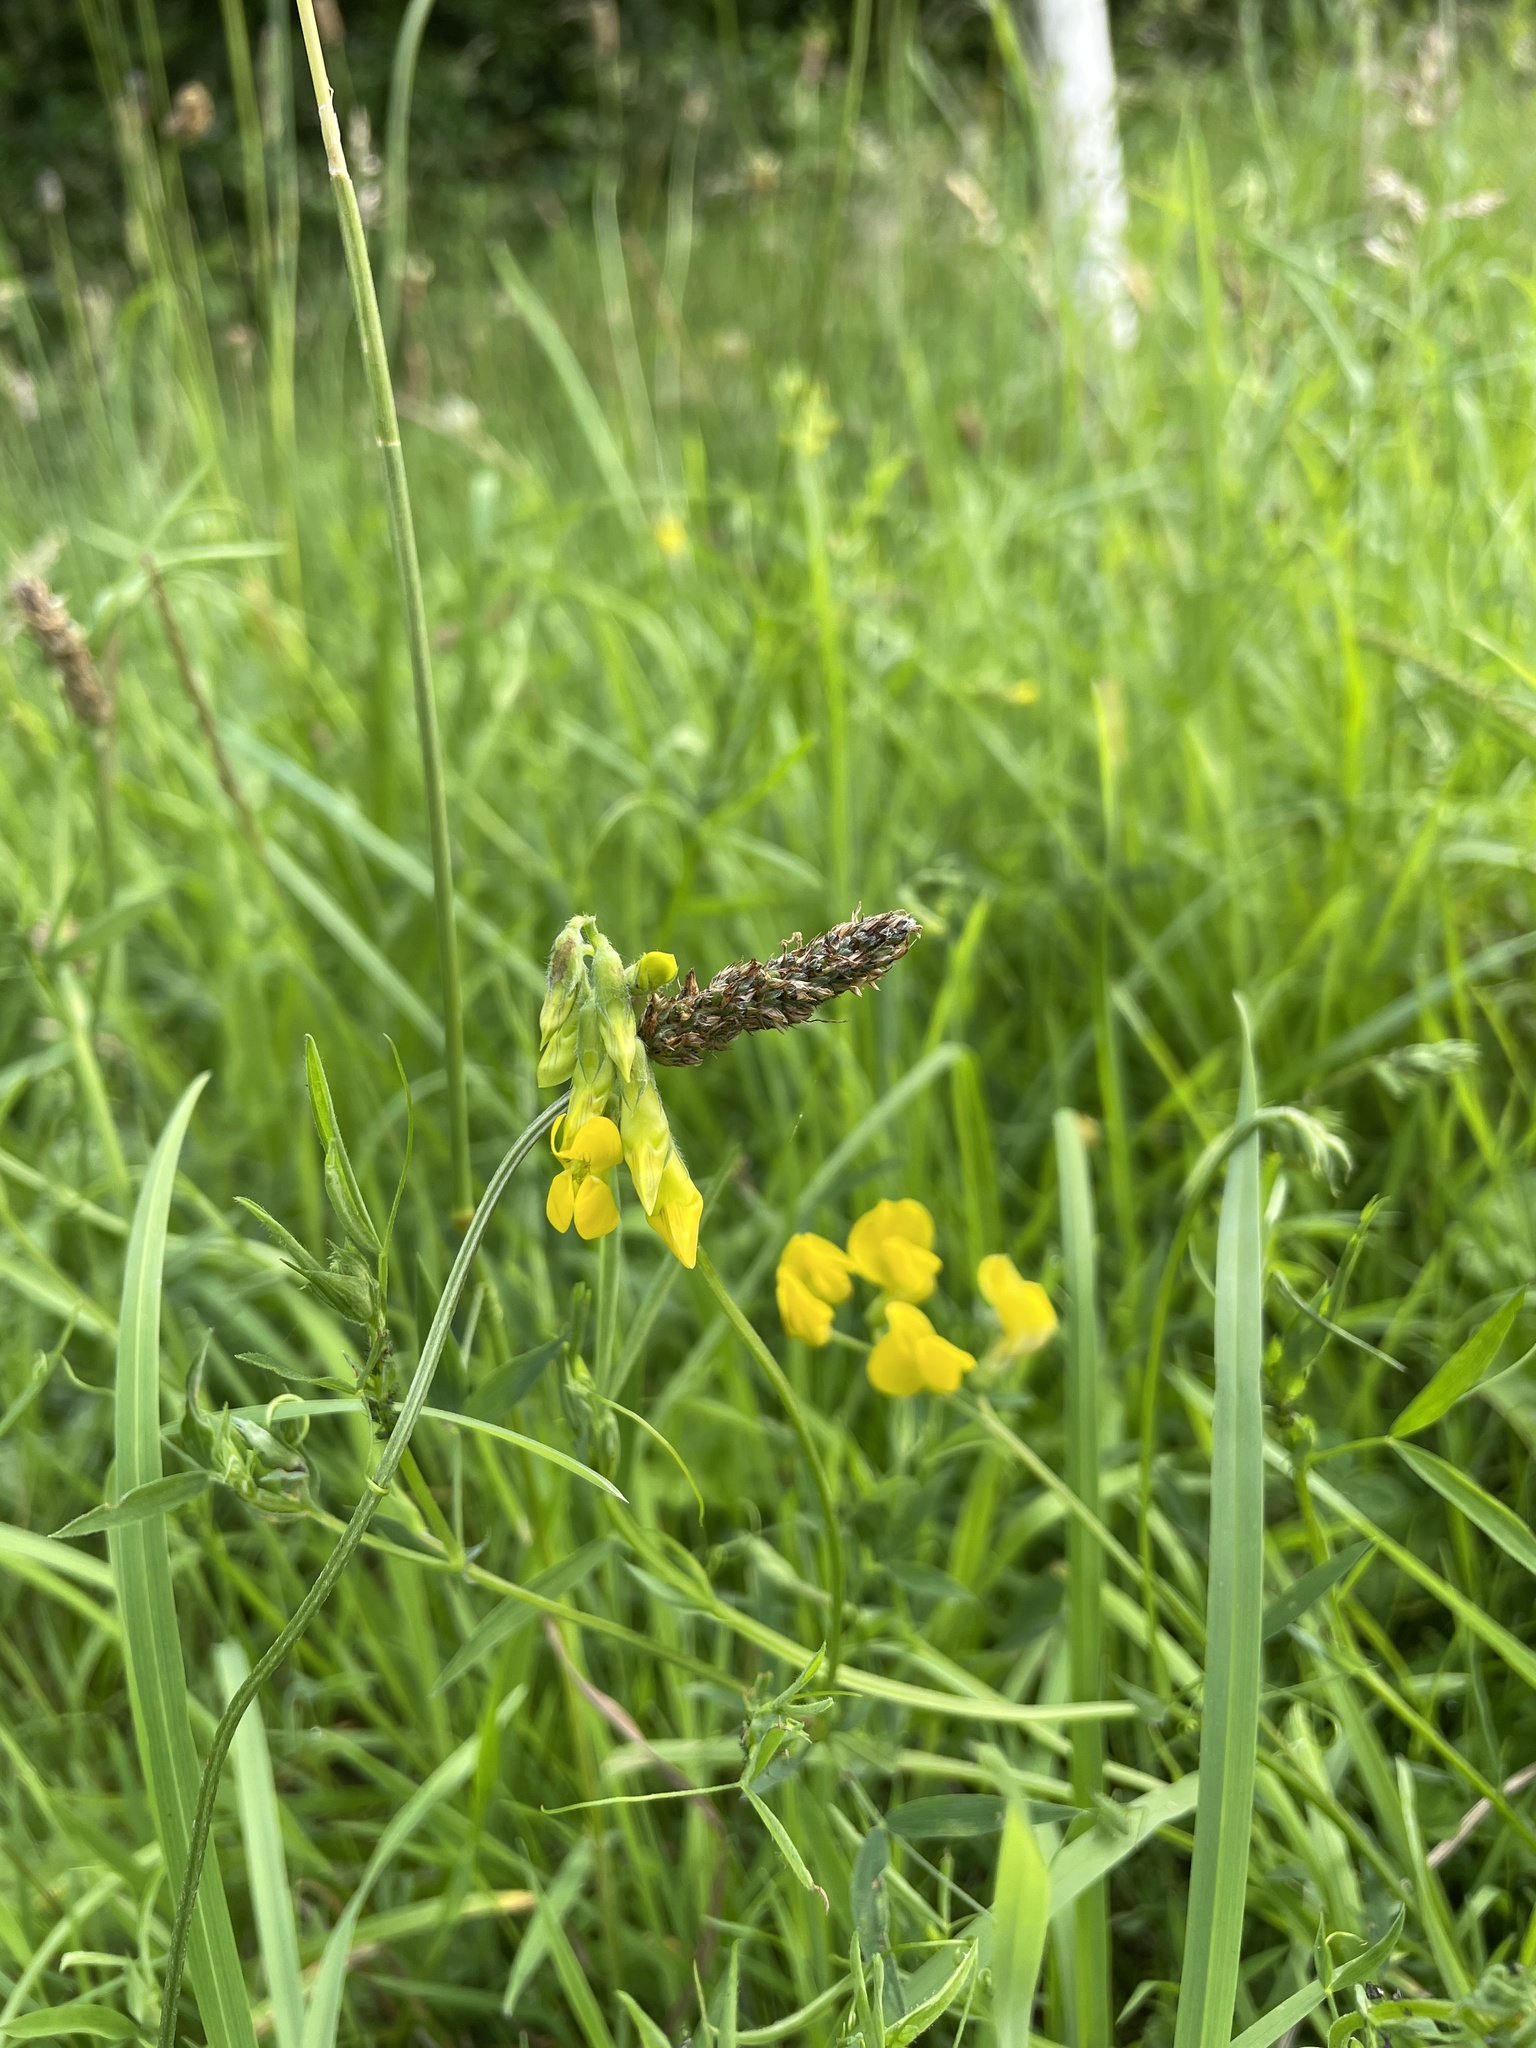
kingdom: Plantae
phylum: Tracheophyta
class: Magnoliopsida
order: Fabales
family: Fabaceae
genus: Lathyrus
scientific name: Lathyrus pratensis
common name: Meadow vetchling
